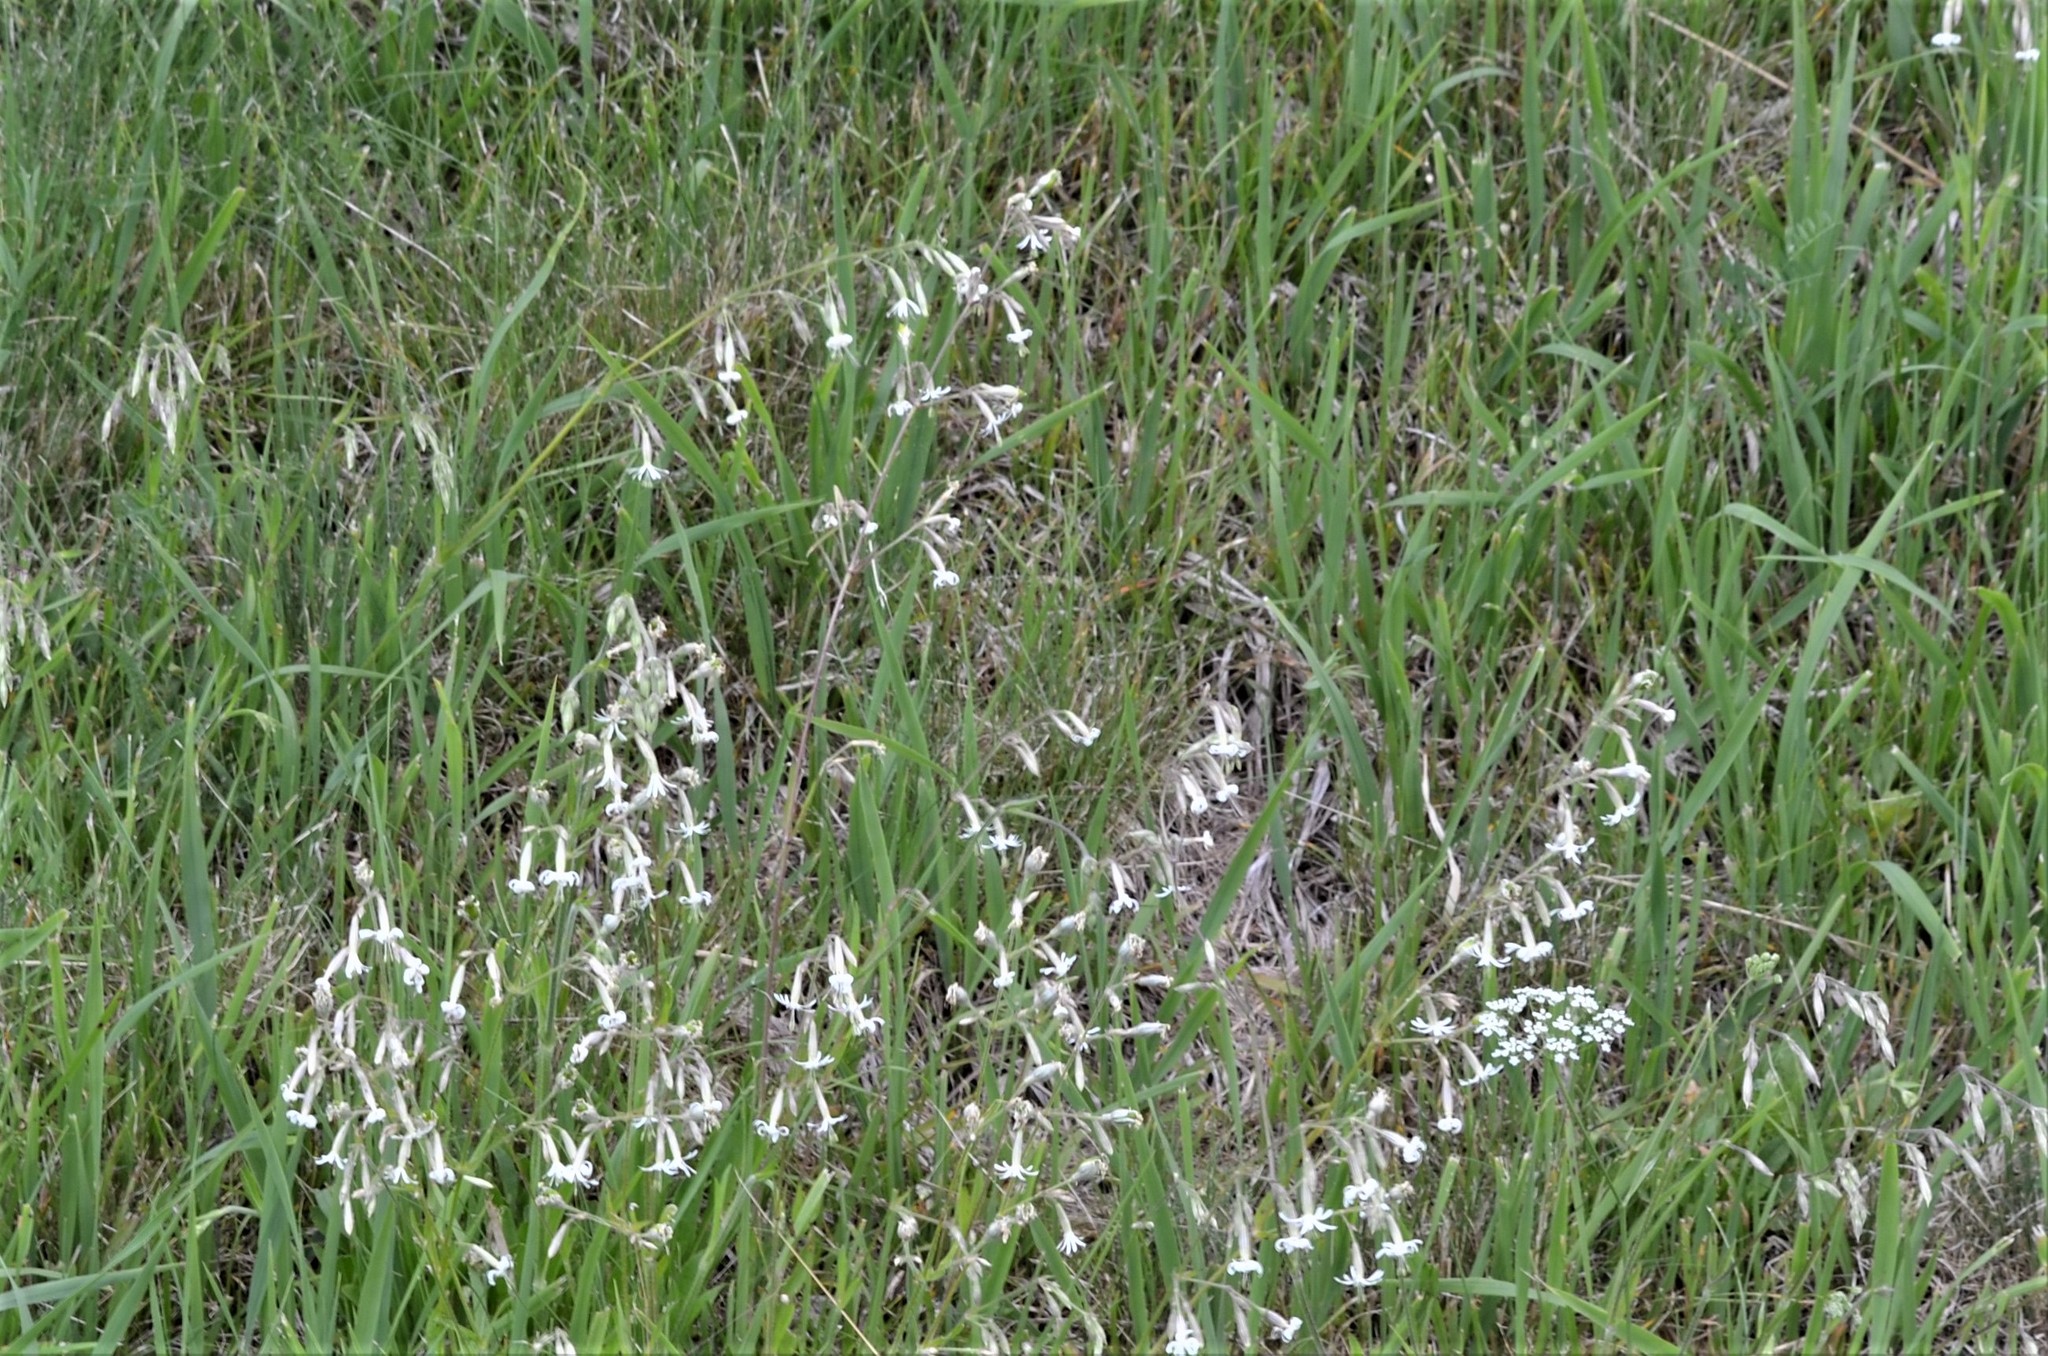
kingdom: Plantae
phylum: Tracheophyta
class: Magnoliopsida
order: Caryophyllales
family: Caryophyllaceae
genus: Silene
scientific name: Silene nutans
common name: Nottingham catchfly
